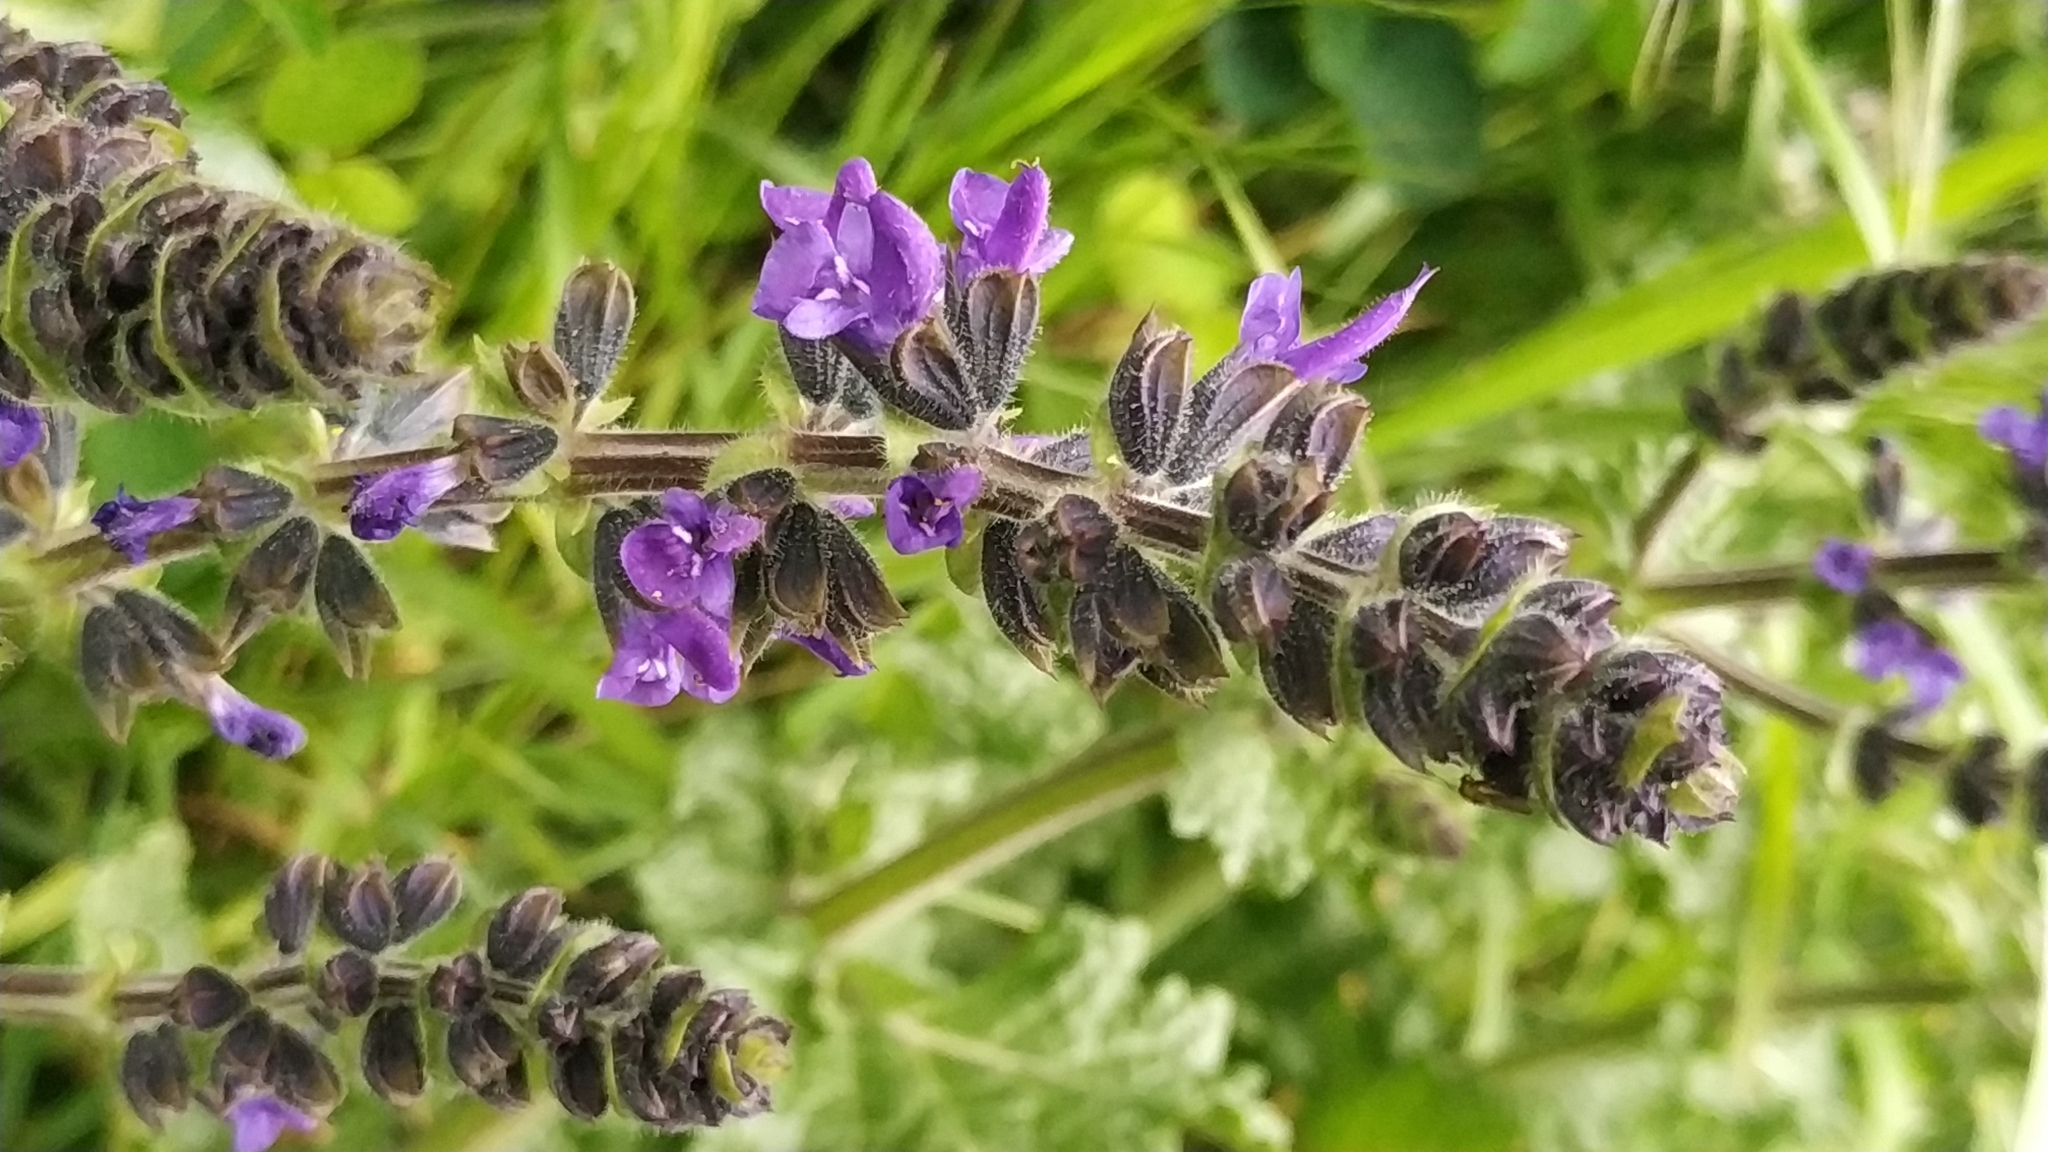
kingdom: Plantae
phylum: Tracheophyta
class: Magnoliopsida
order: Lamiales
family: Lamiaceae
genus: Salvia
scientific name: Salvia verbenaca
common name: Wild clary
